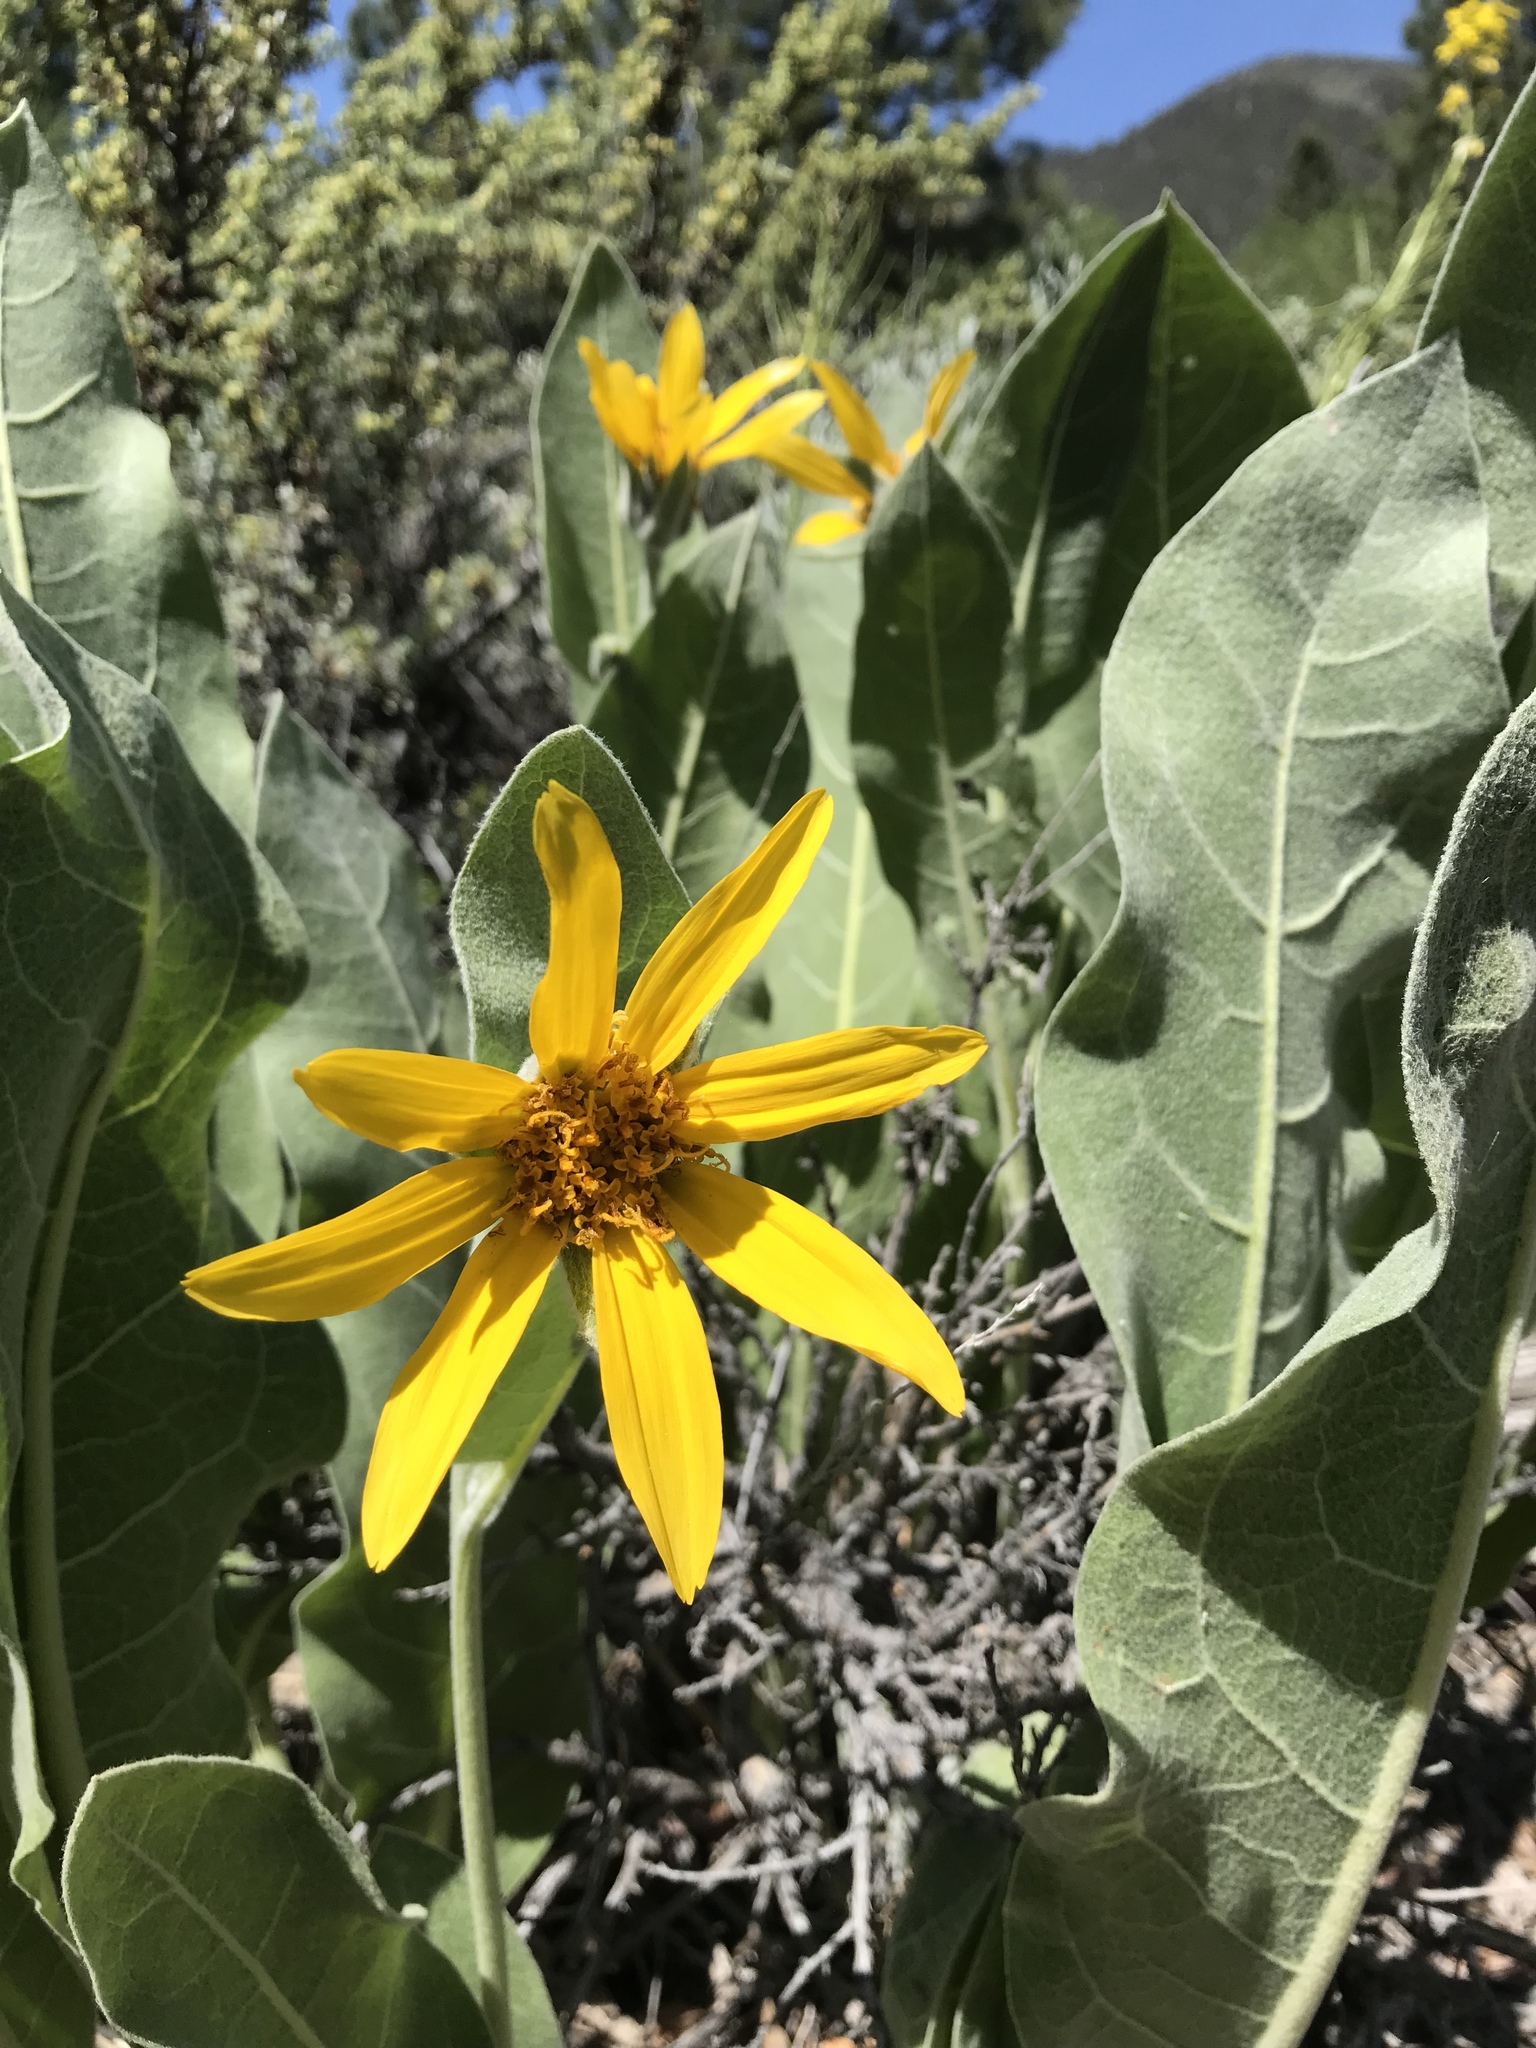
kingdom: Plantae
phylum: Tracheophyta
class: Magnoliopsida
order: Asterales
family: Asteraceae
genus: Wyethia
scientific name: Wyethia mollis
